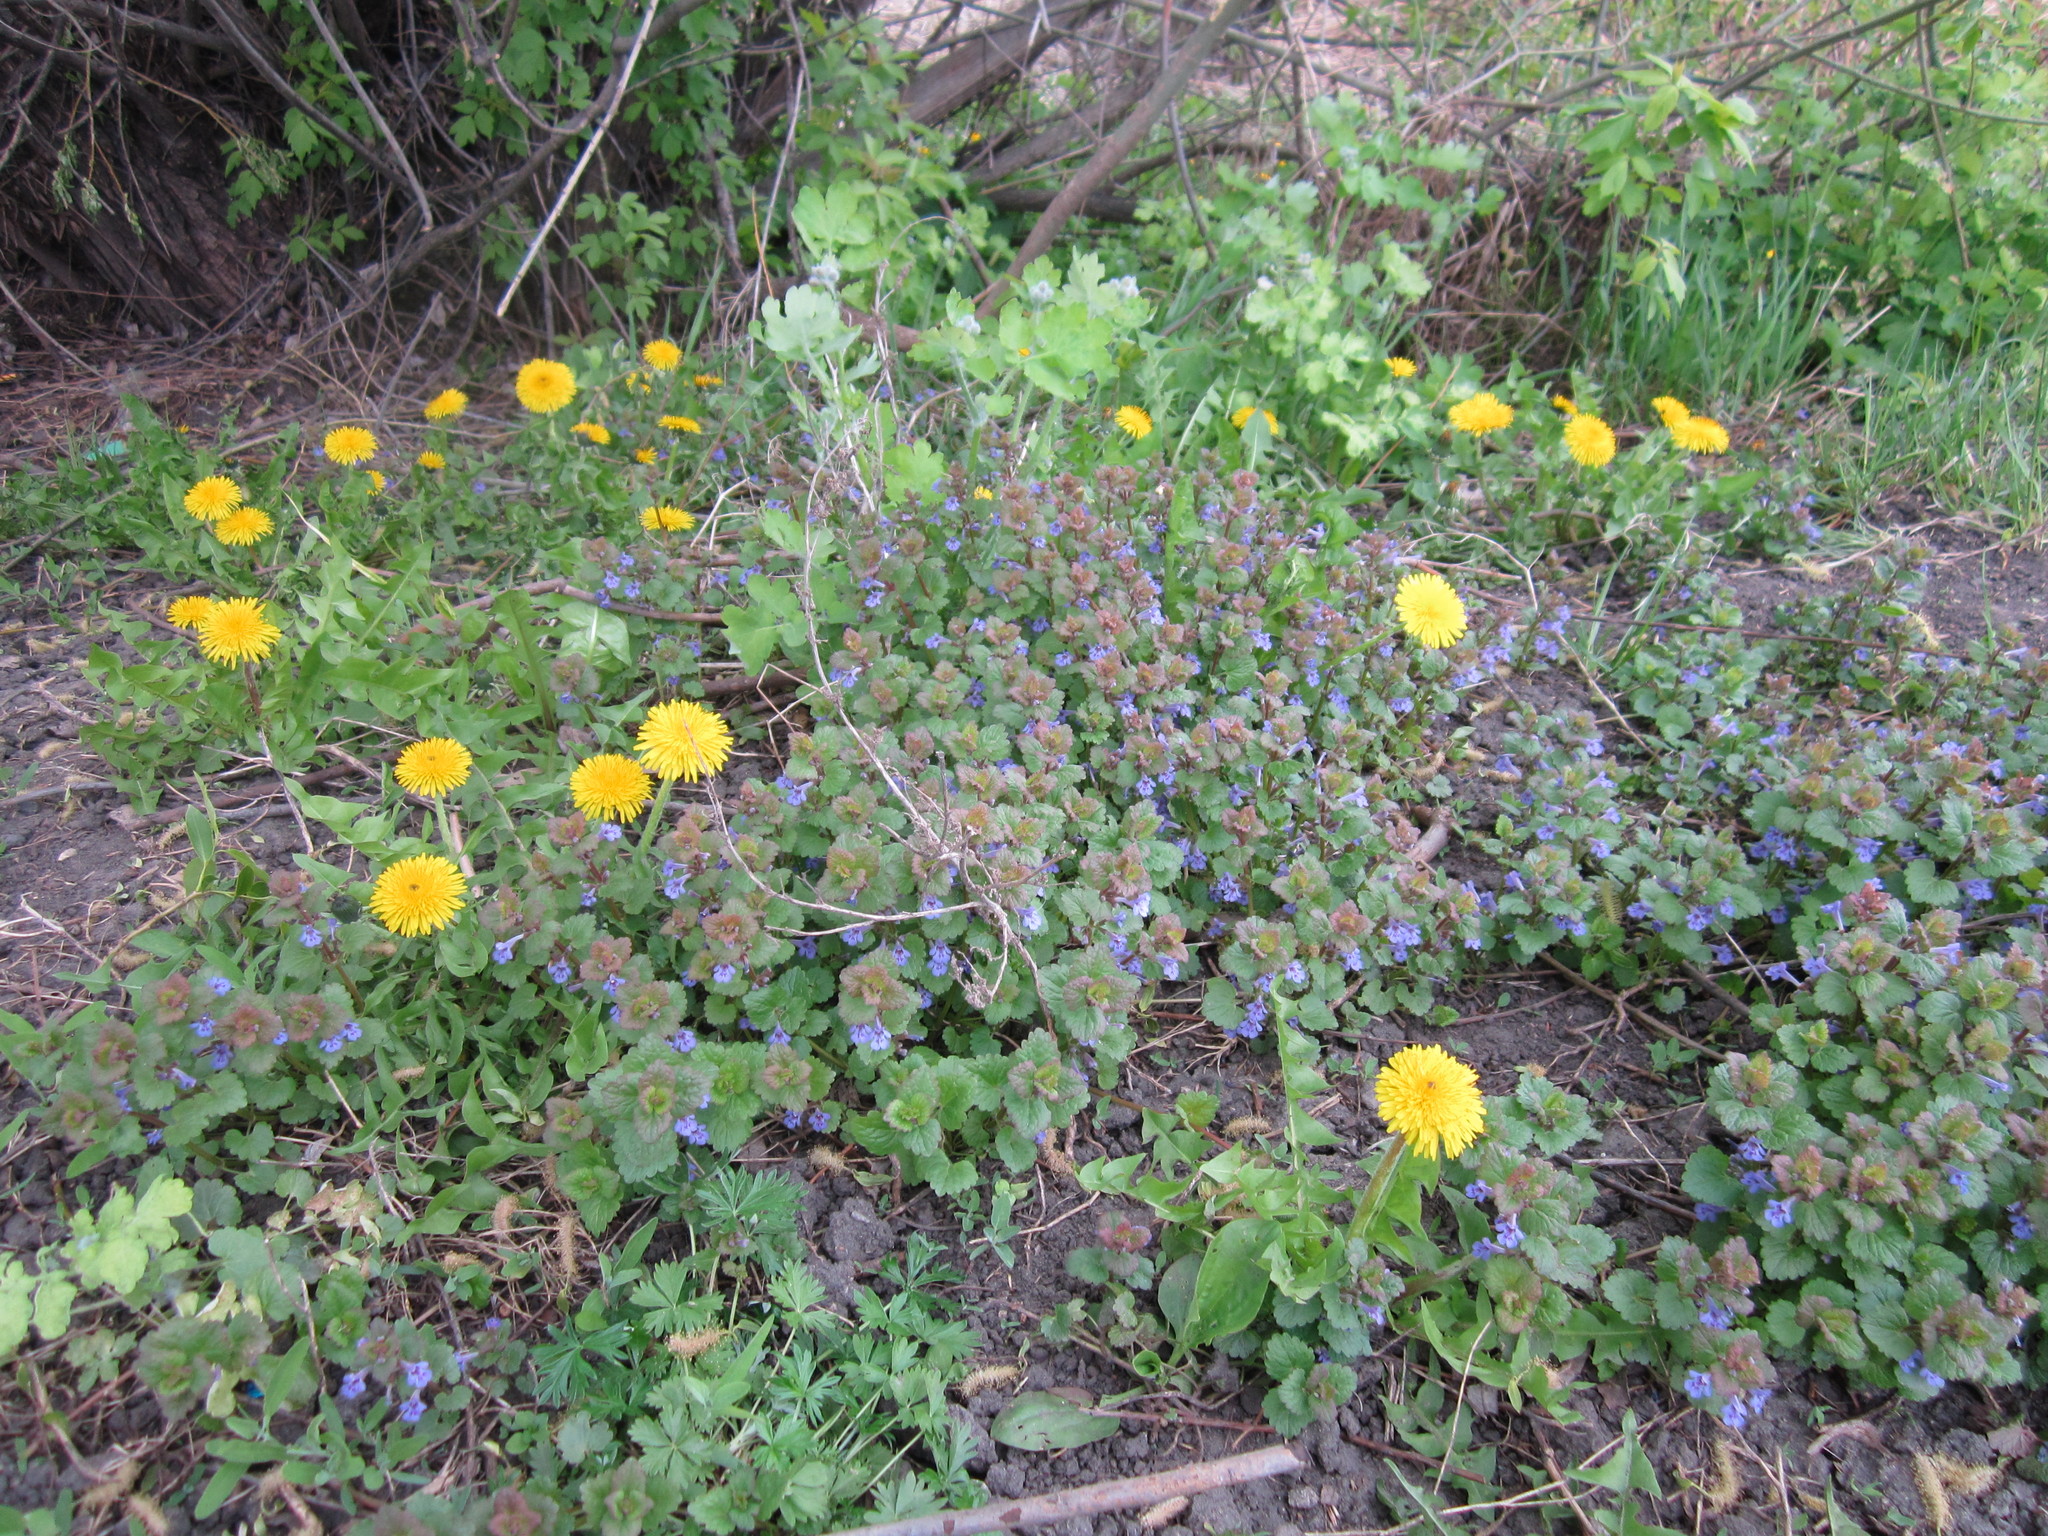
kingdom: Plantae
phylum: Tracheophyta
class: Magnoliopsida
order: Lamiales
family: Lamiaceae
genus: Glechoma
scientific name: Glechoma hederacea
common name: Ground ivy
